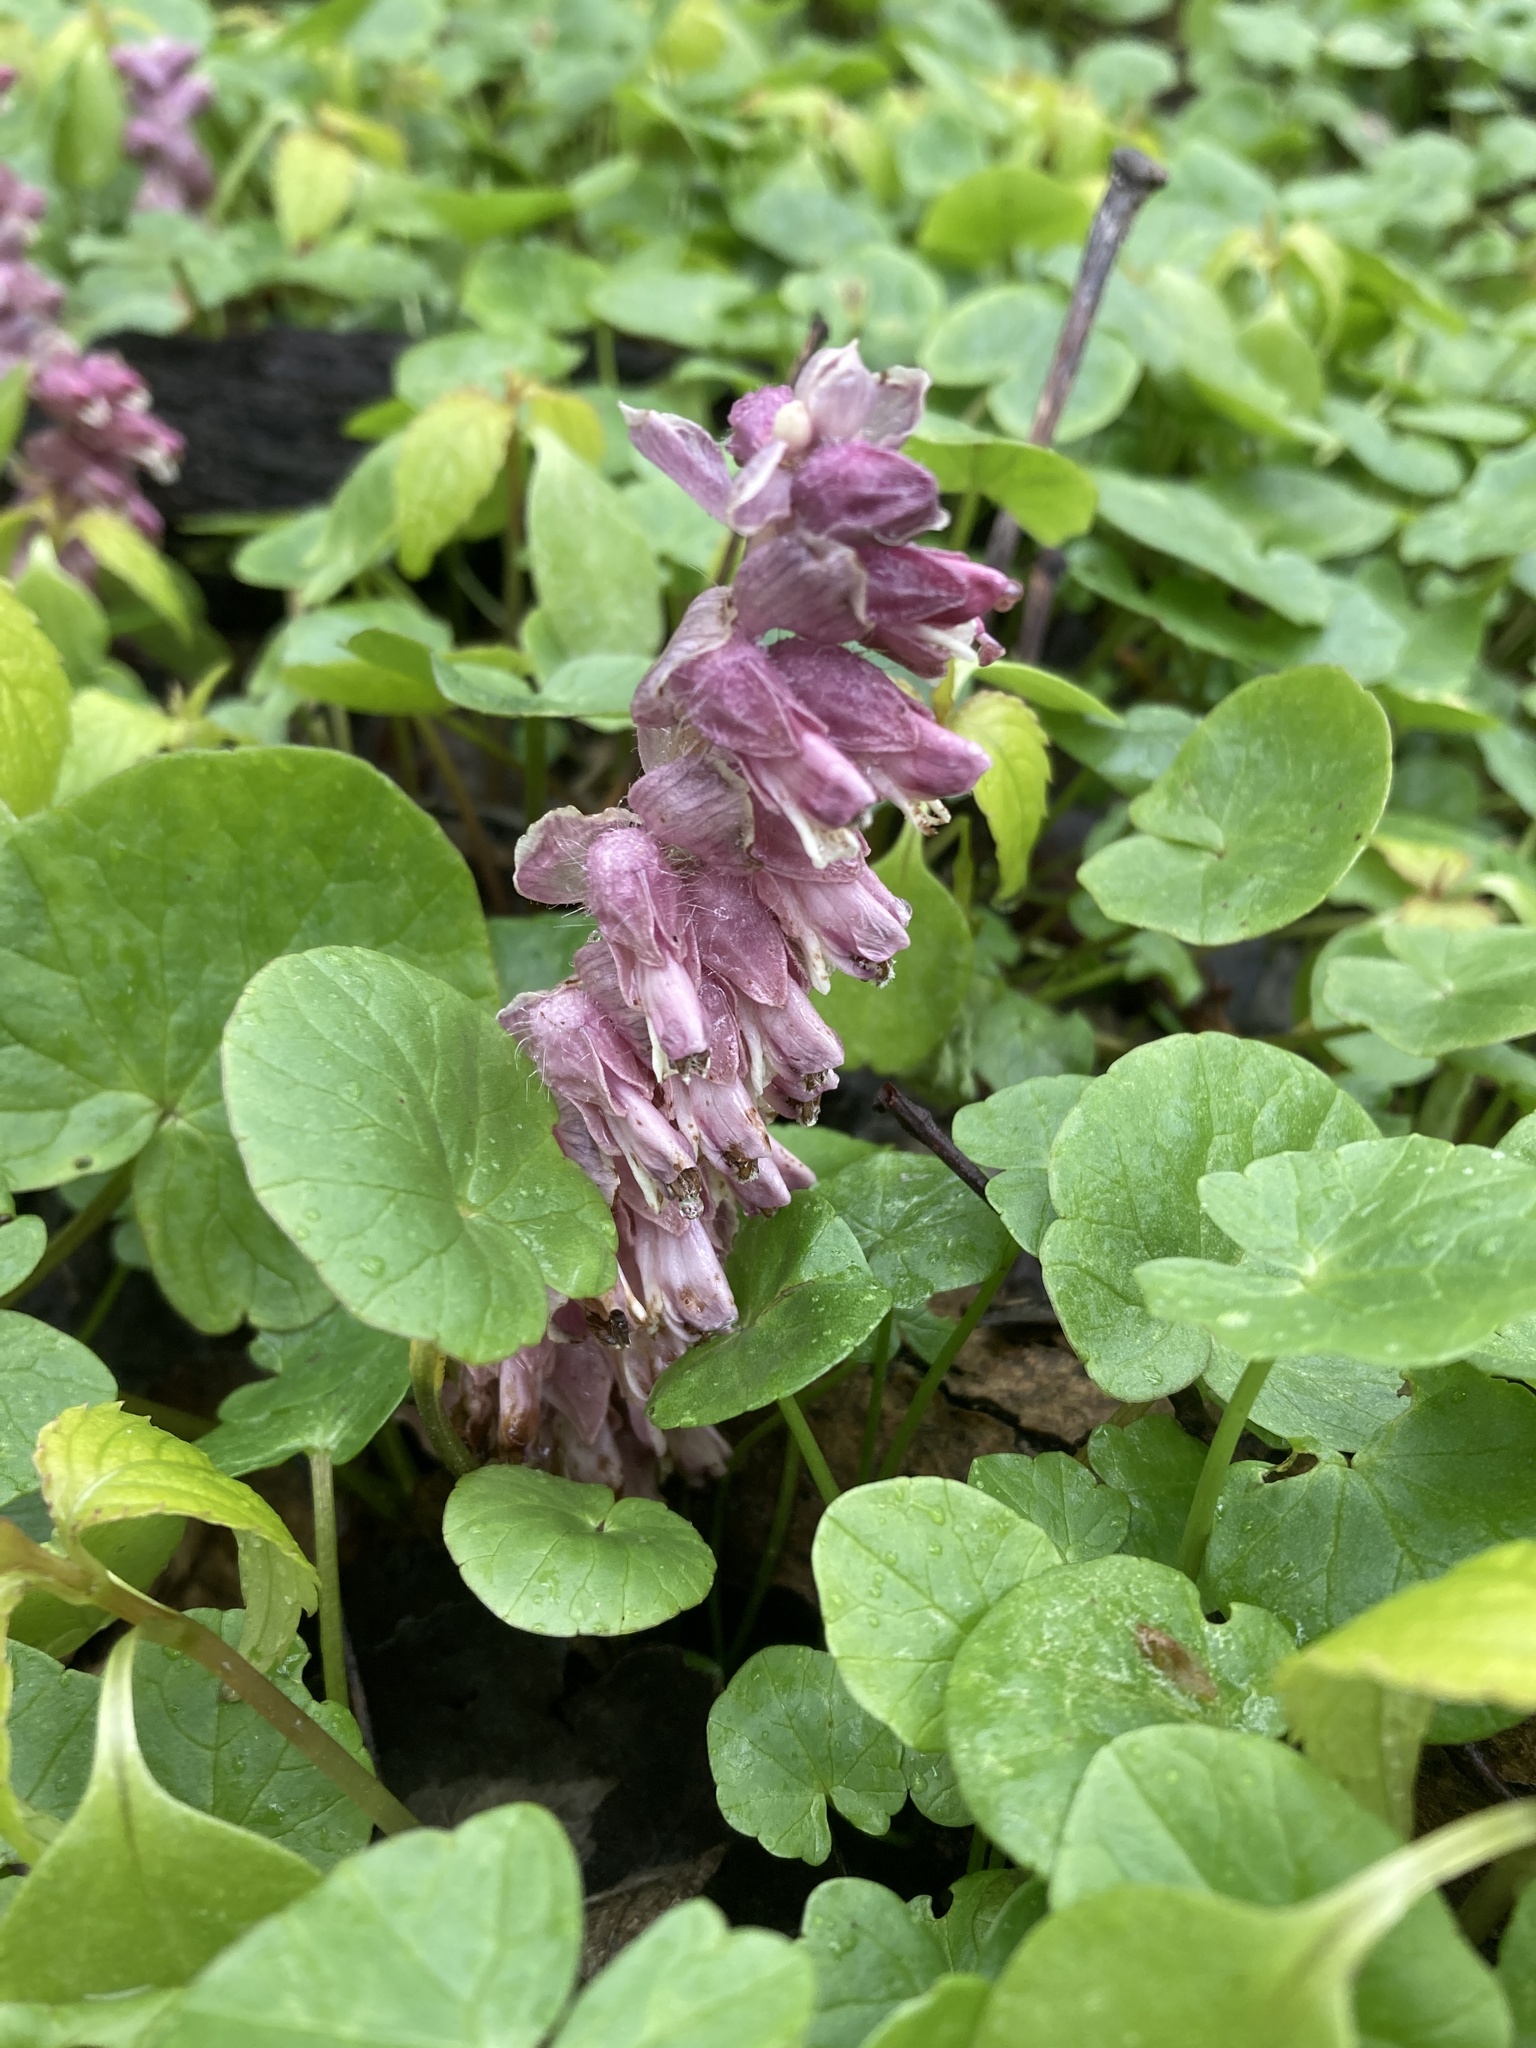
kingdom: Plantae
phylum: Tracheophyta
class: Magnoliopsida
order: Lamiales
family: Orobanchaceae
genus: Lathraea
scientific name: Lathraea squamaria
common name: Toothwort
